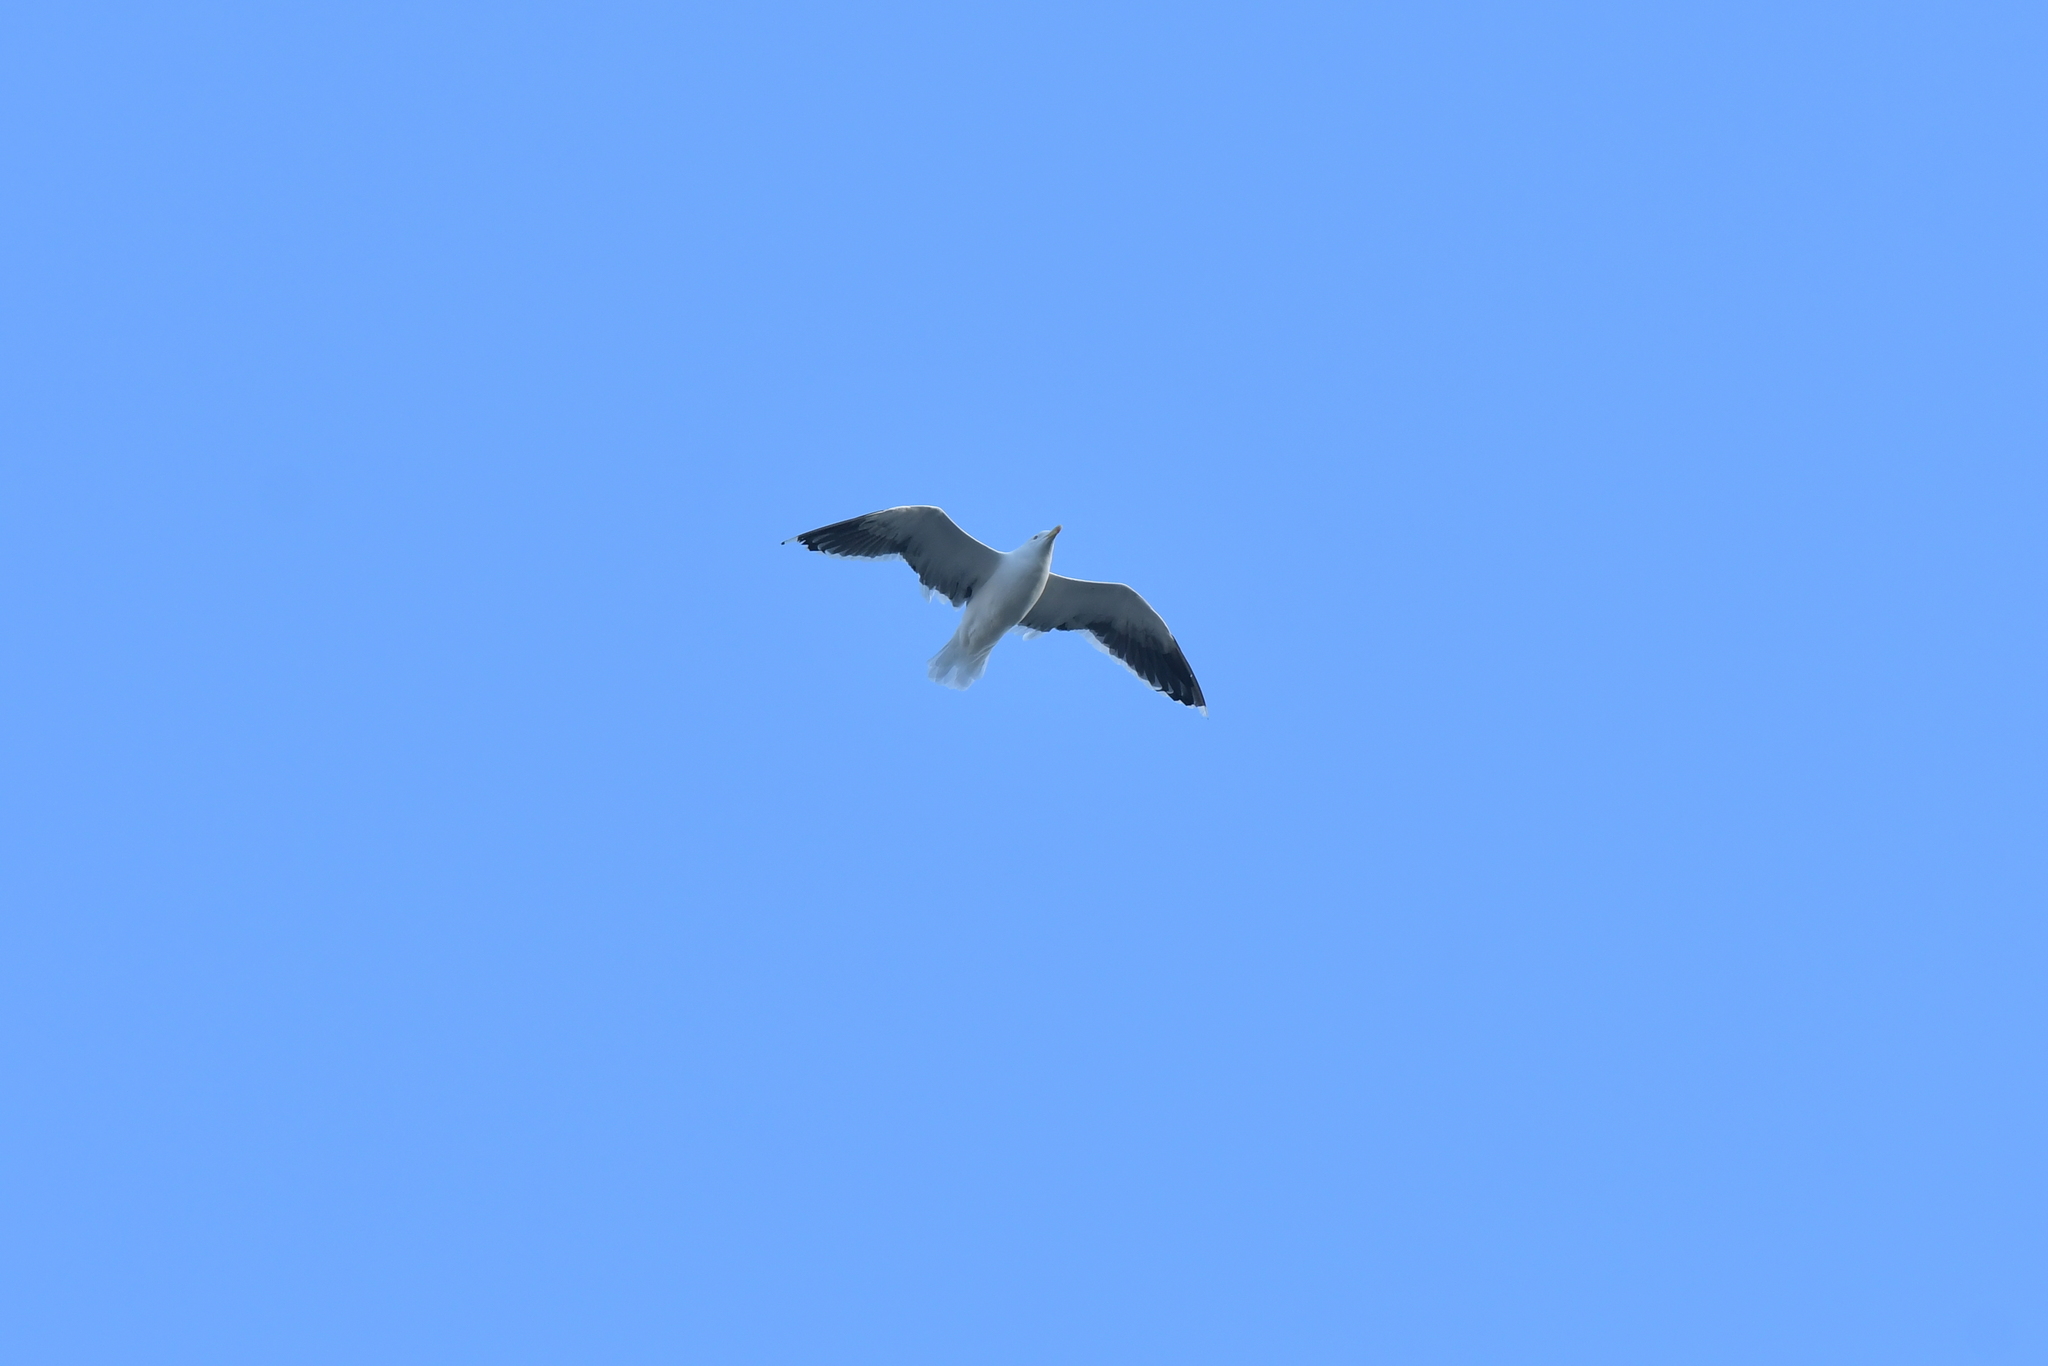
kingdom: Animalia
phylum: Chordata
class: Aves
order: Charadriiformes
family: Laridae
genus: Larus
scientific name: Larus dominicanus
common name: Kelp gull
